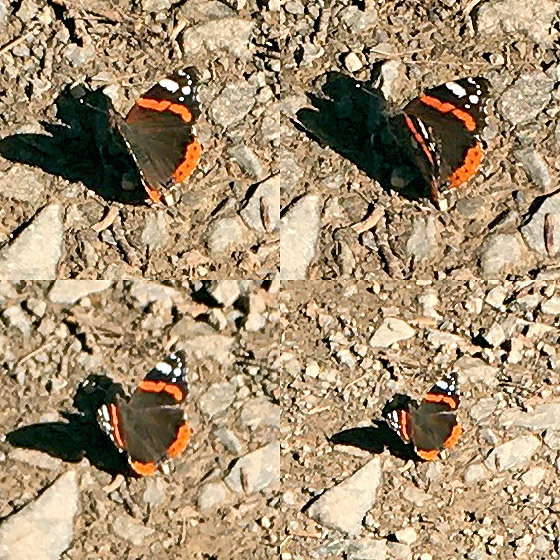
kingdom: Animalia
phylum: Arthropoda
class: Insecta
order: Lepidoptera
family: Nymphalidae
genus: Vanessa
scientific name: Vanessa atalanta
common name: Red admiral
